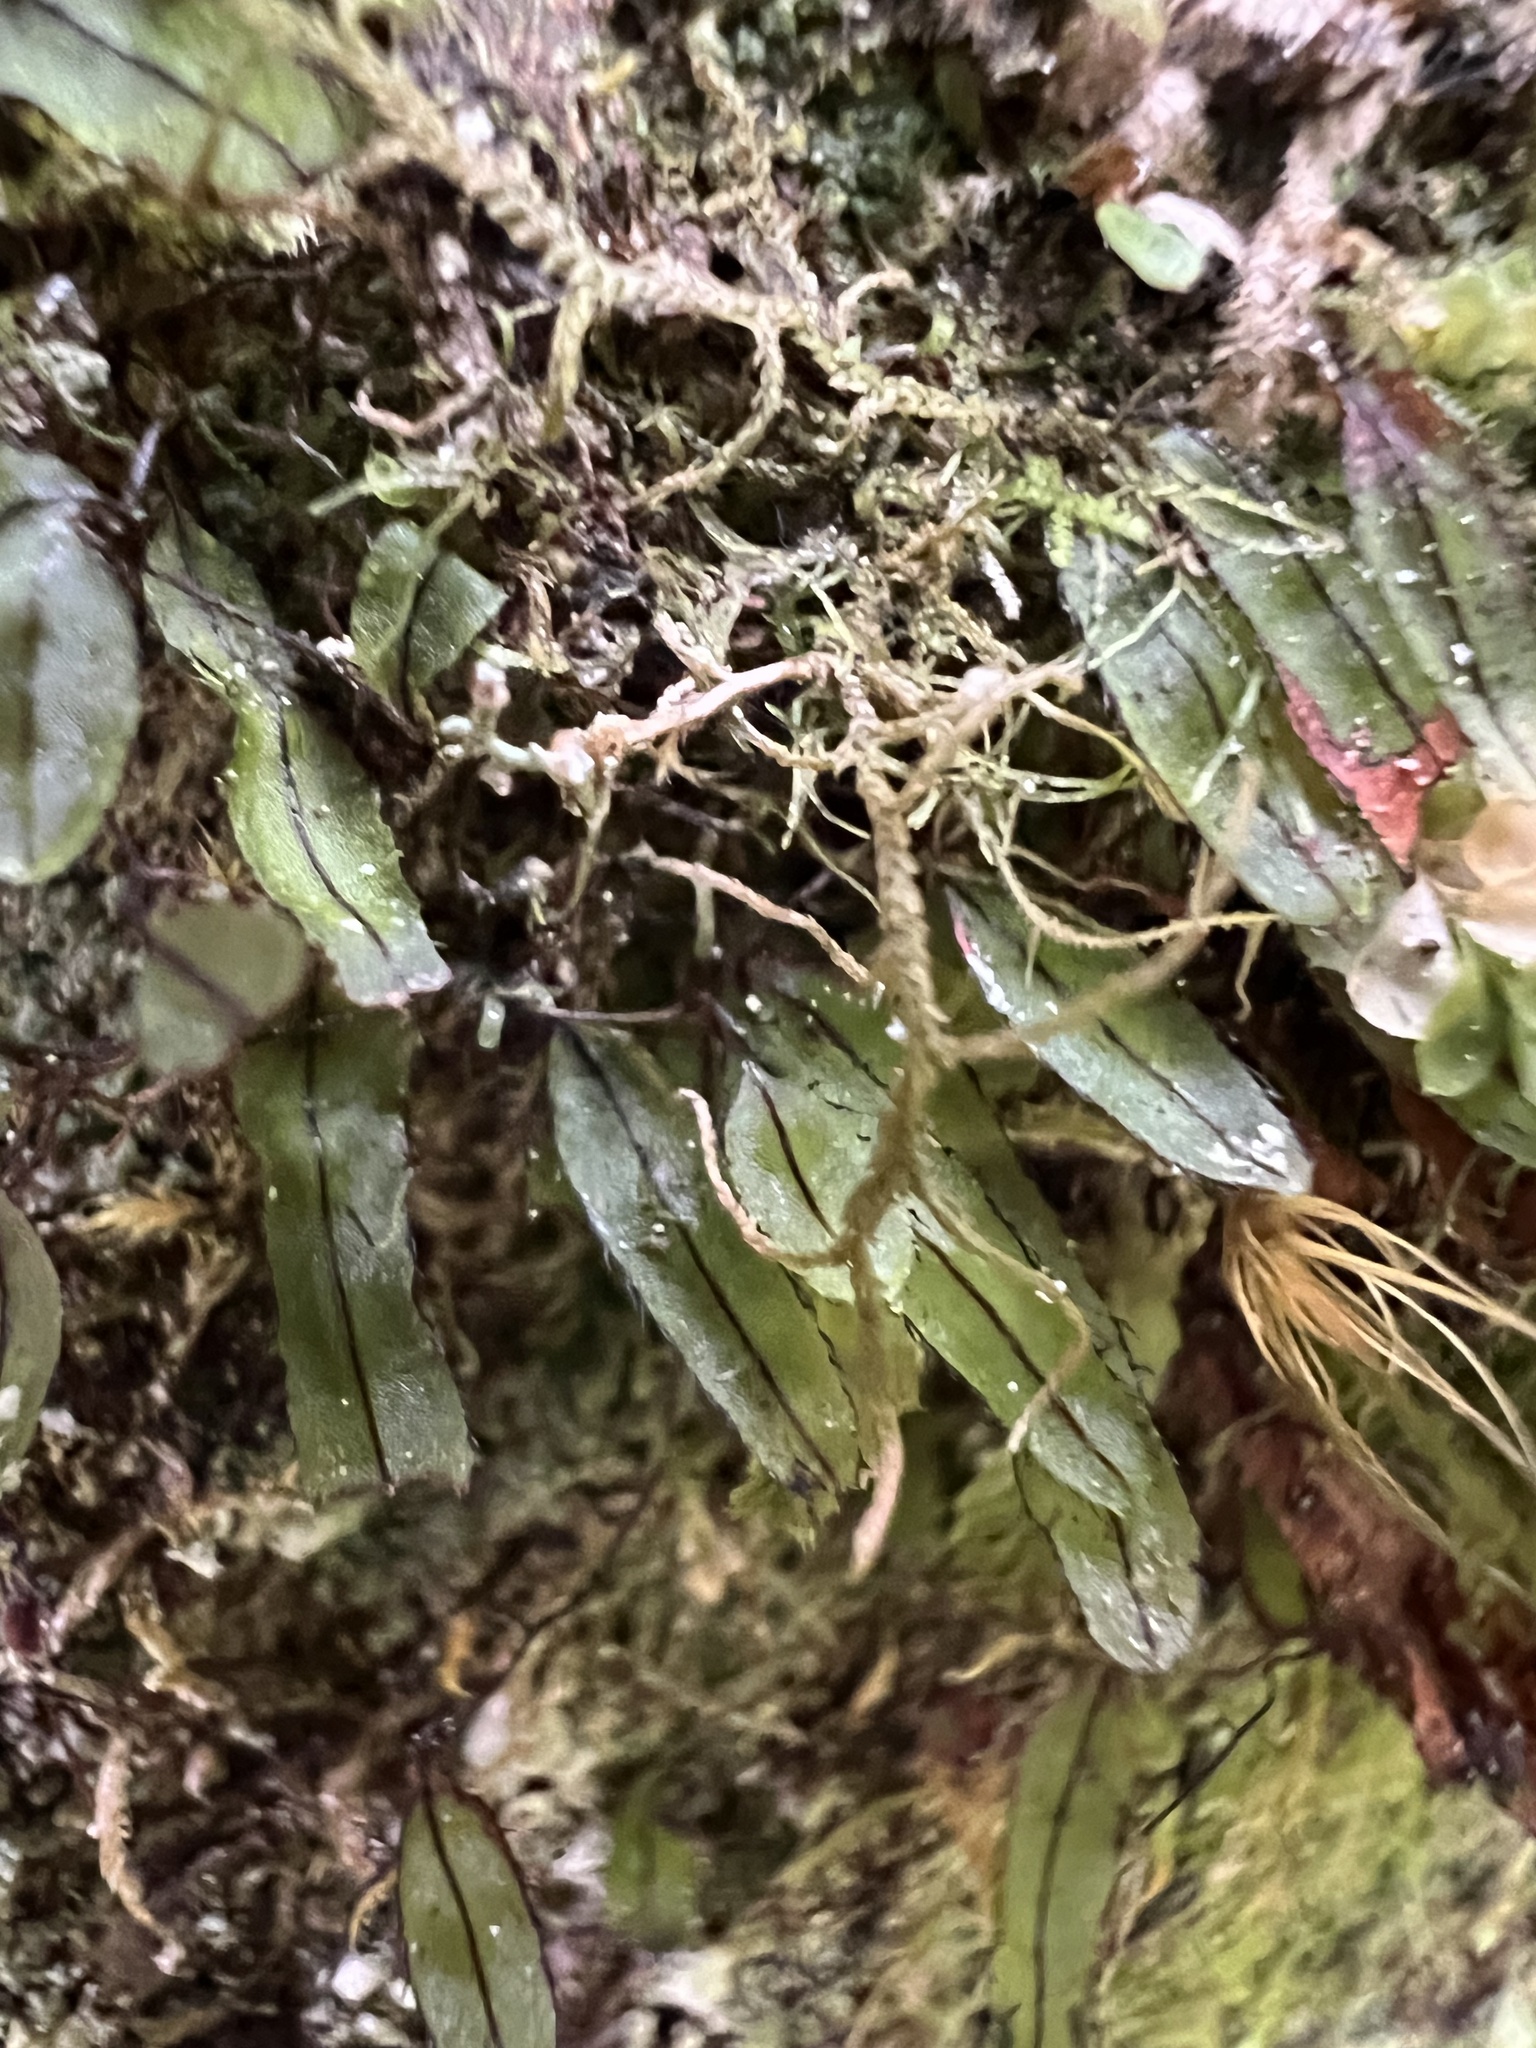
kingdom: Plantae
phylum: Tracheophyta
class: Polypodiopsida
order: Hymenophyllales
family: Hymenophyllaceae
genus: Hymenophyllum
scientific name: Hymenophyllum armstrongii
